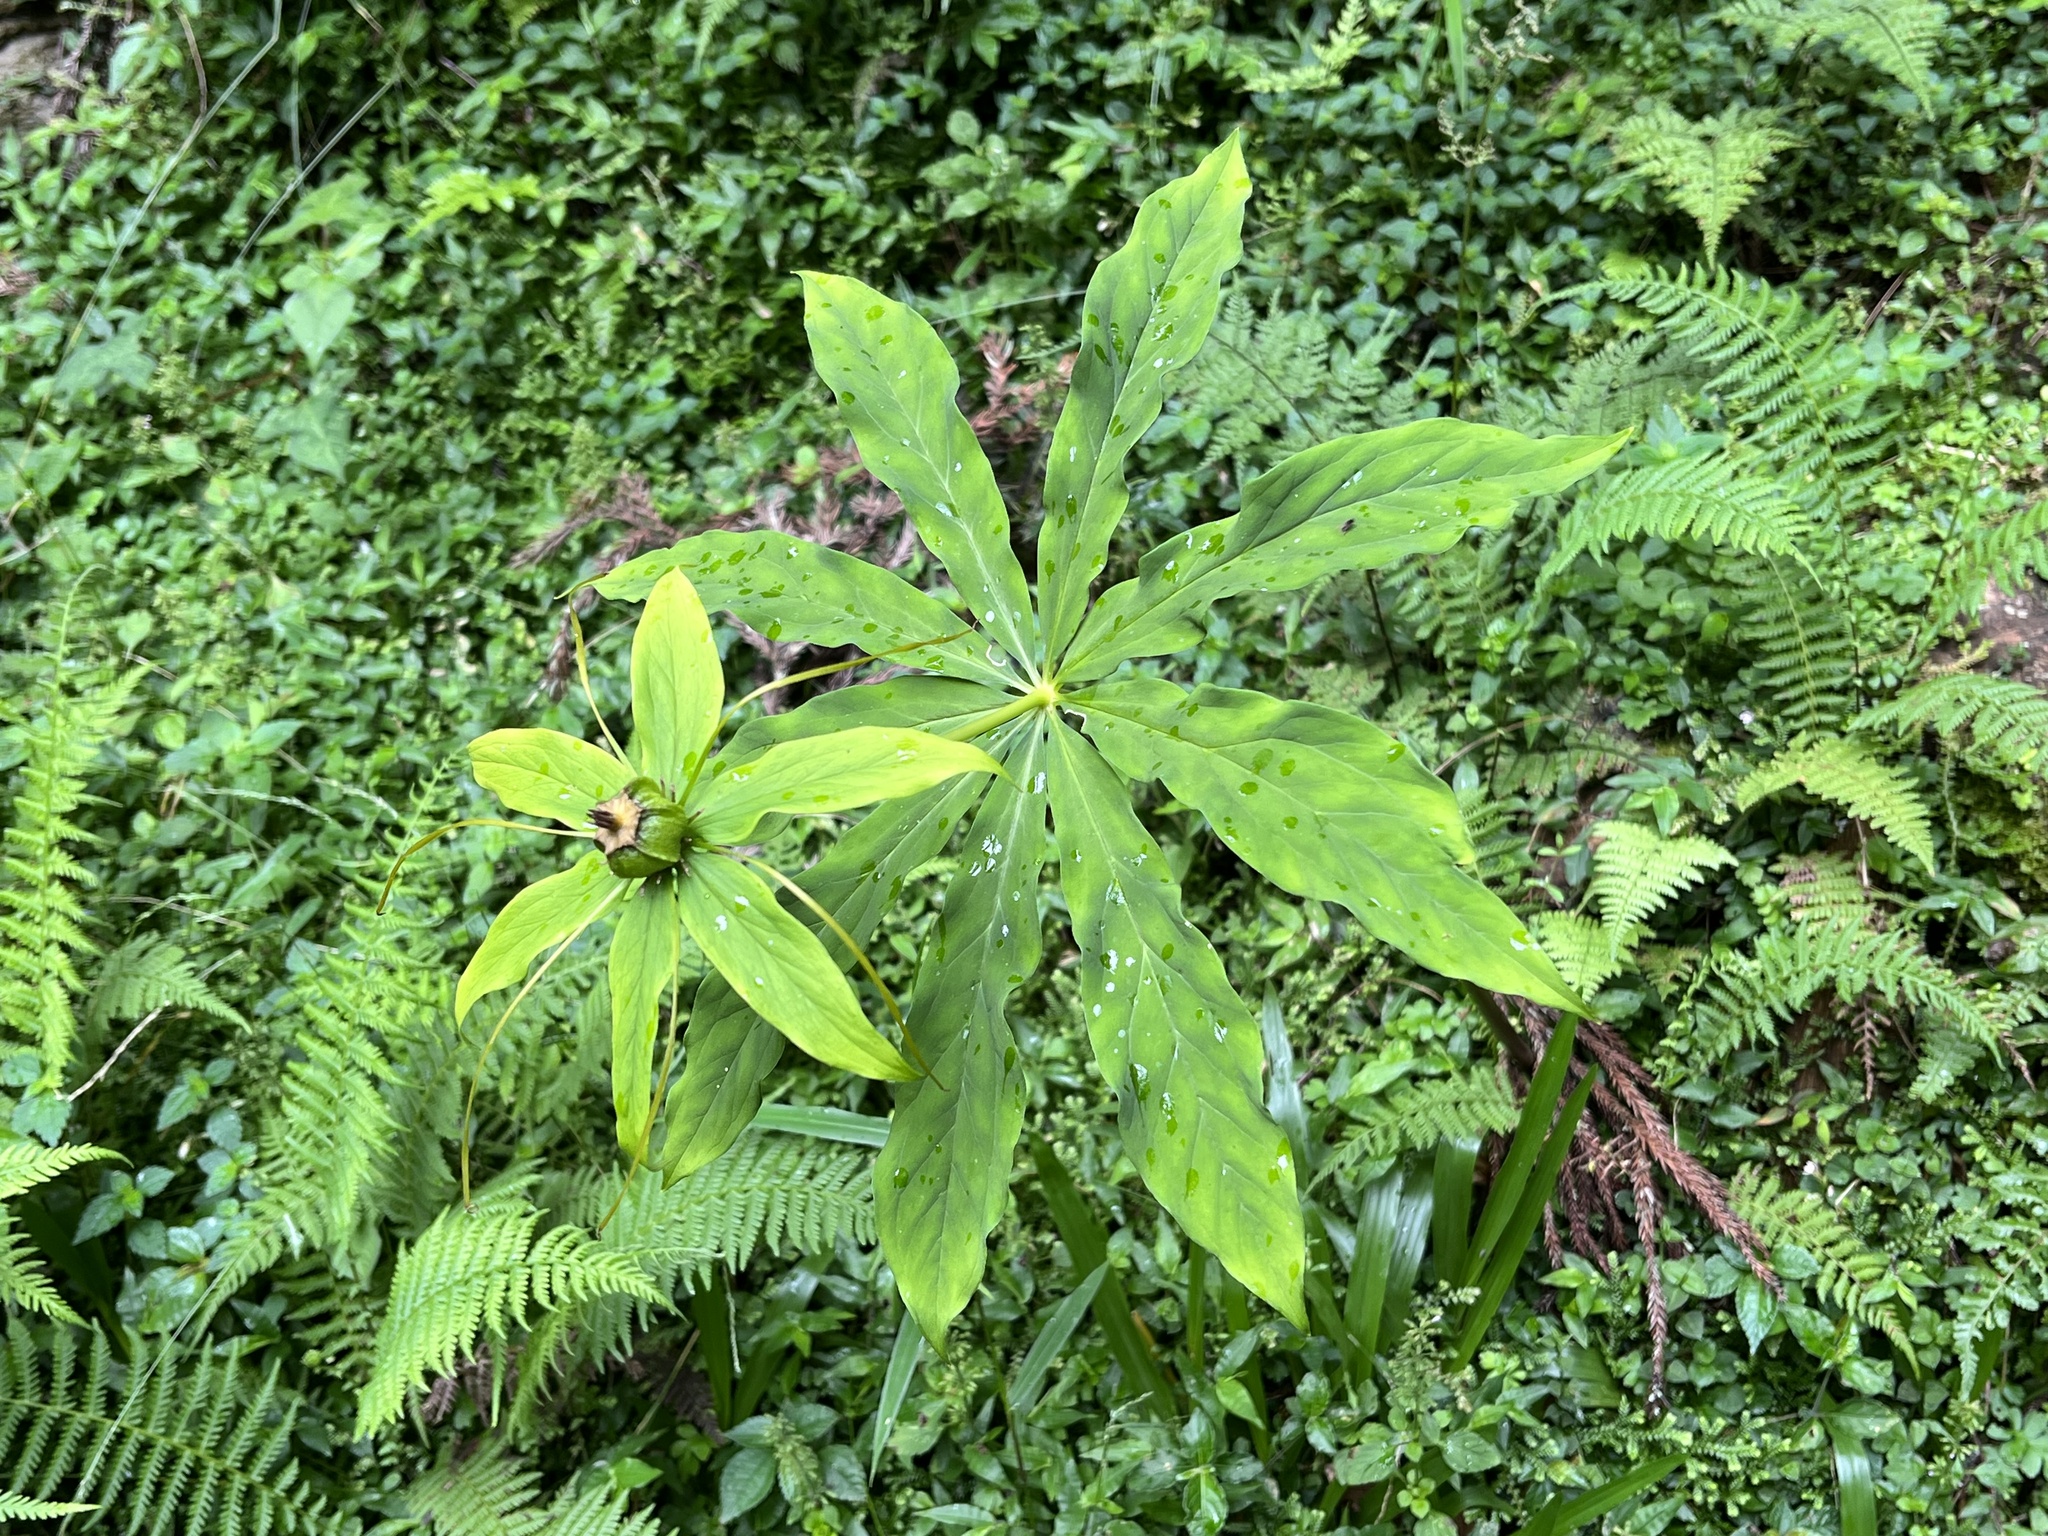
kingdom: Plantae
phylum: Tracheophyta
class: Liliopsida
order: Liliales
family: Melanthiaceae
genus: Paris
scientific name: Paris lancifolia
